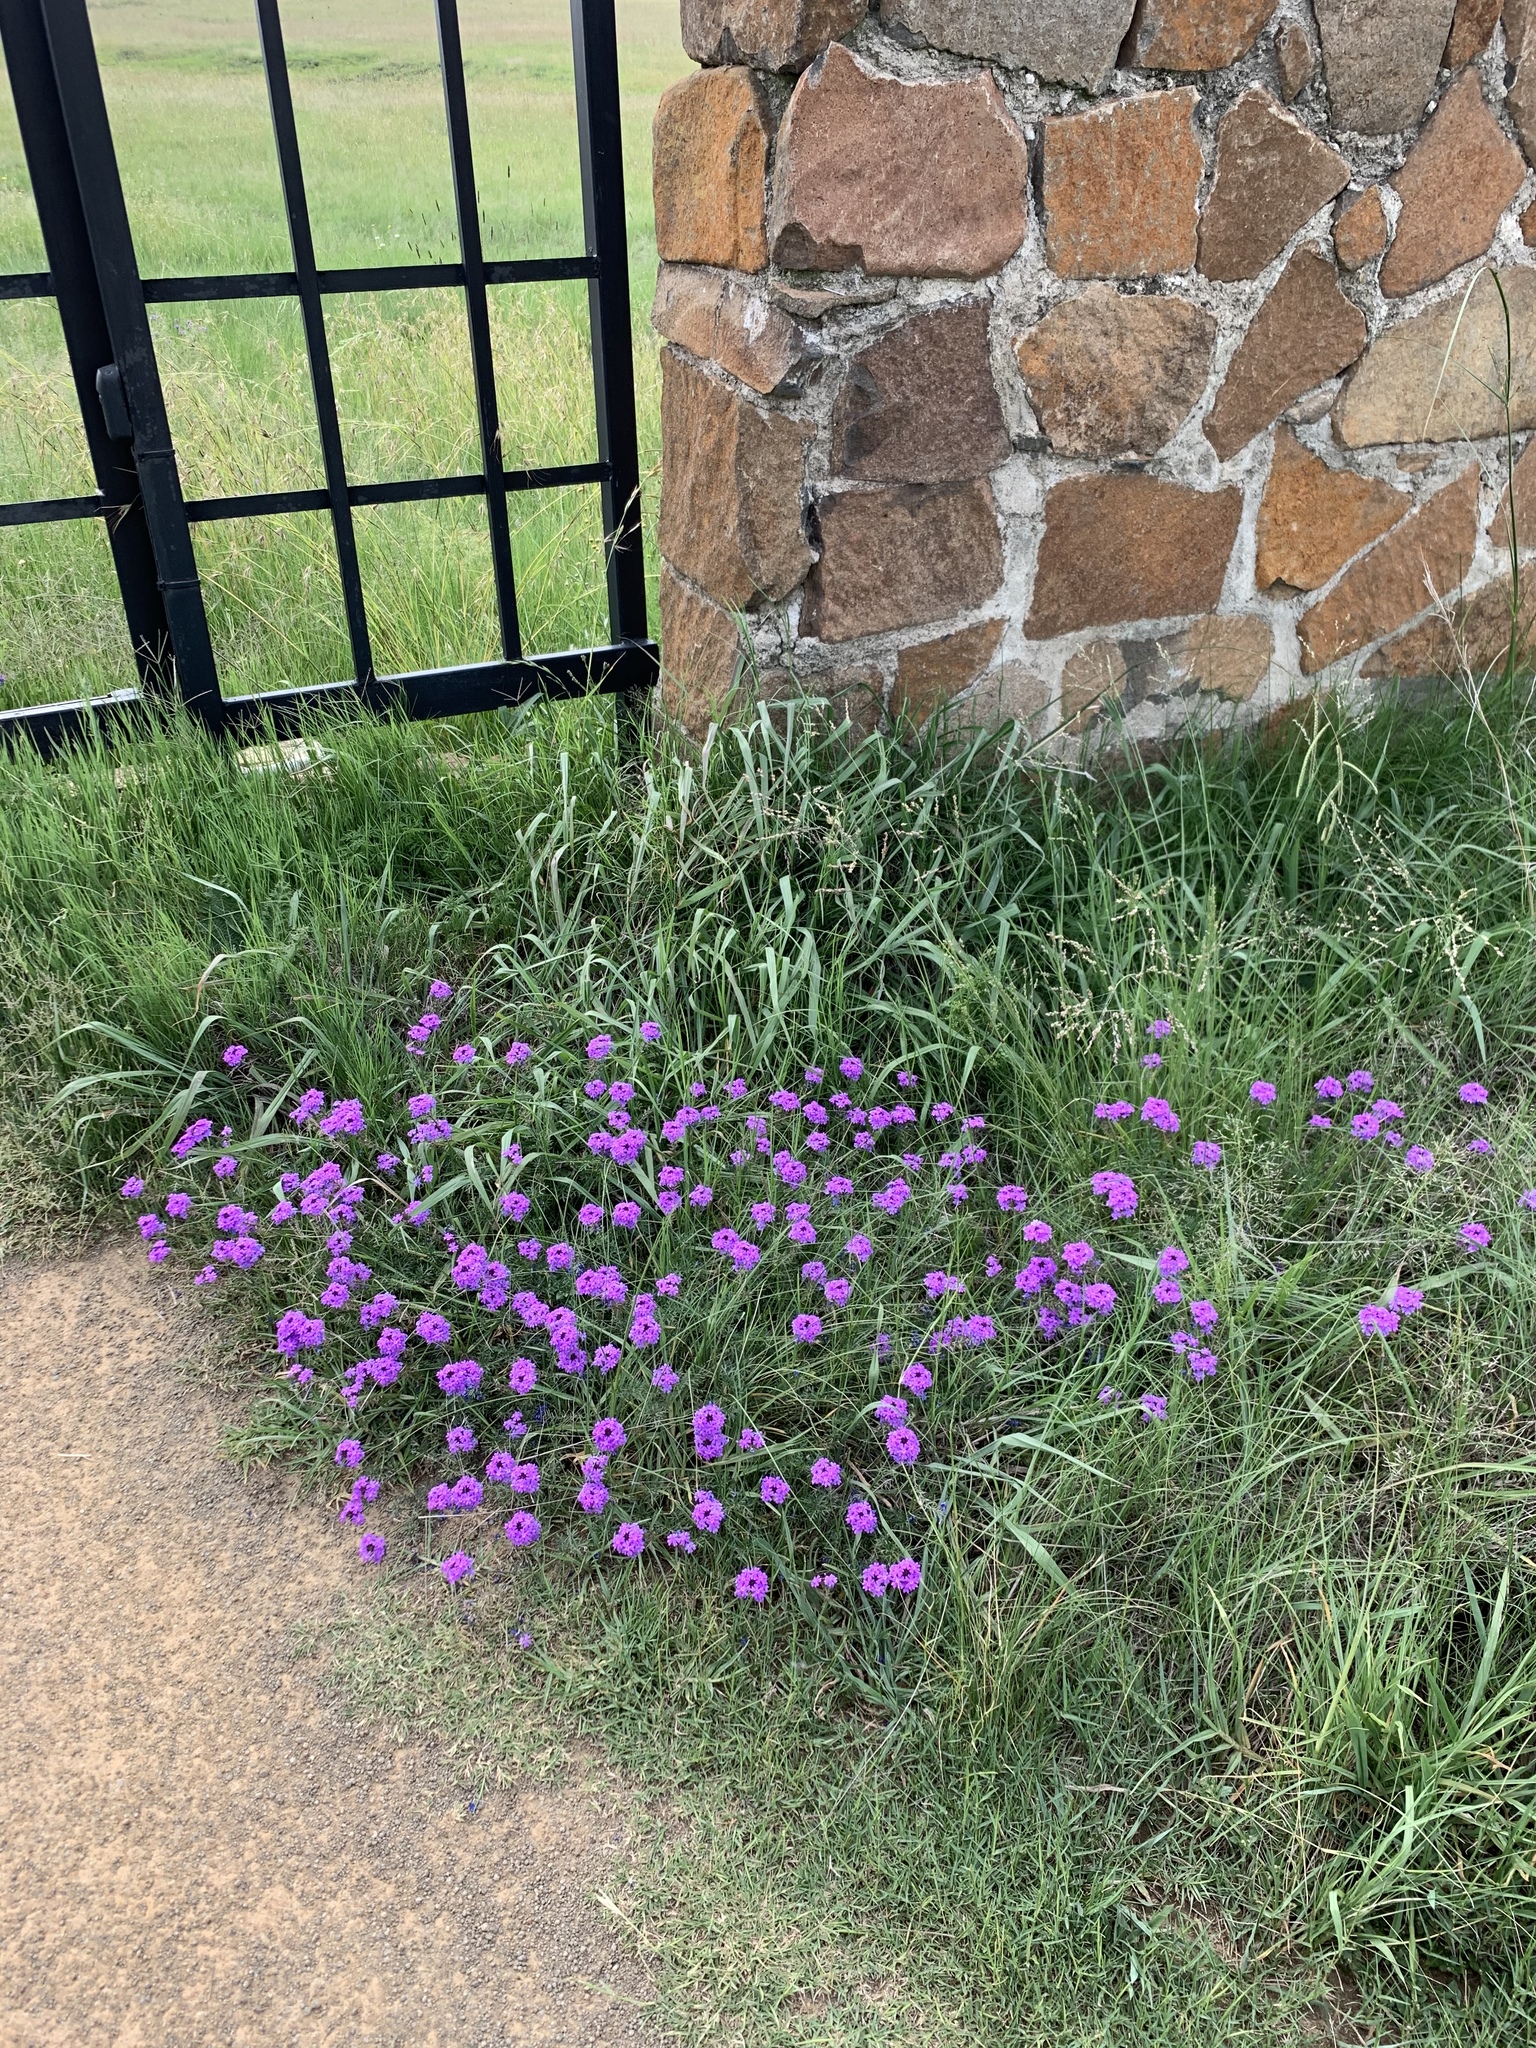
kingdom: Plantae
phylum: Tracheophyta
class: Magnoliopsida
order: Lamiales
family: Verbenaceae
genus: Verbena
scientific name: Verbena aristigera
